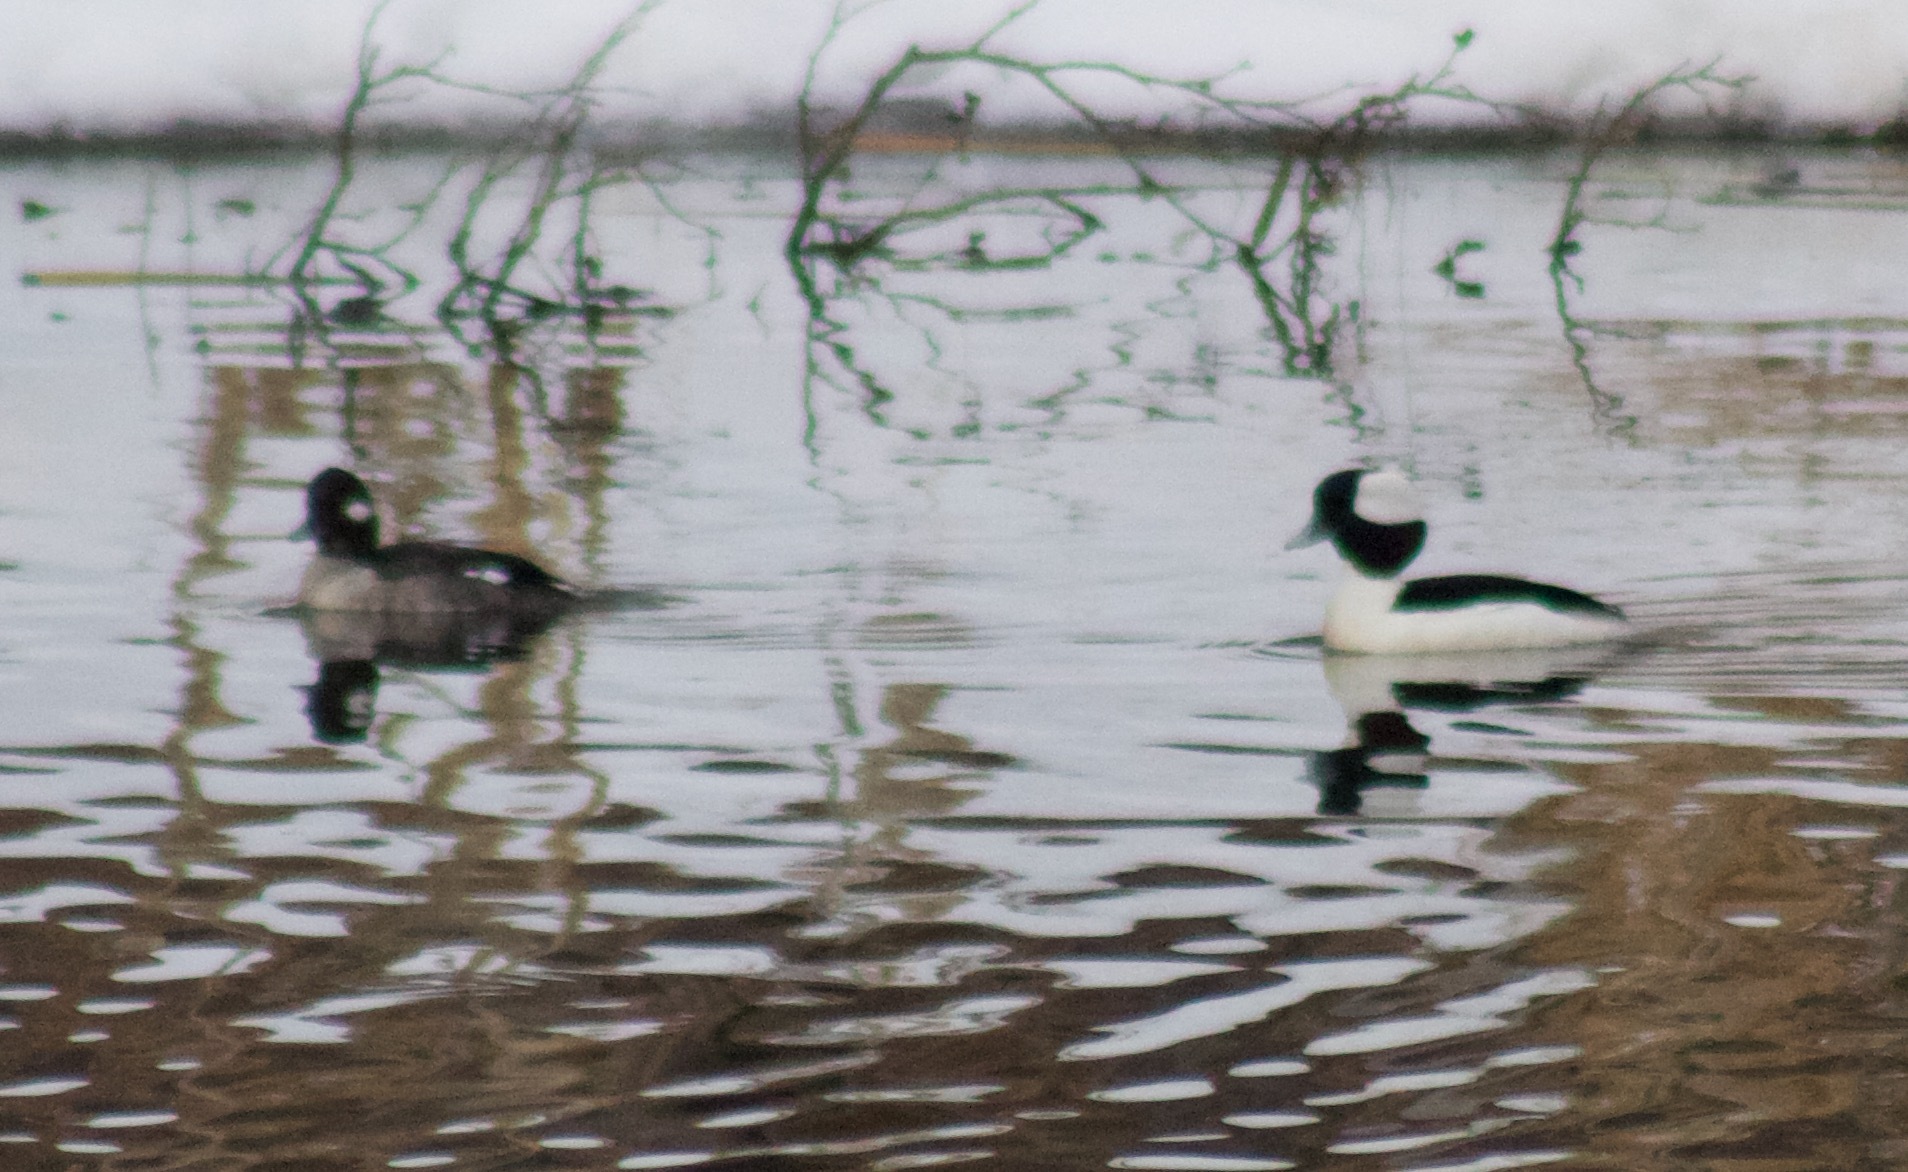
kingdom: Animalia
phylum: Chordata
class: Aves
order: Anseriformes
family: Anatidae
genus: Bucephala
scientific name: Bucephala albeola
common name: Bufflehead
